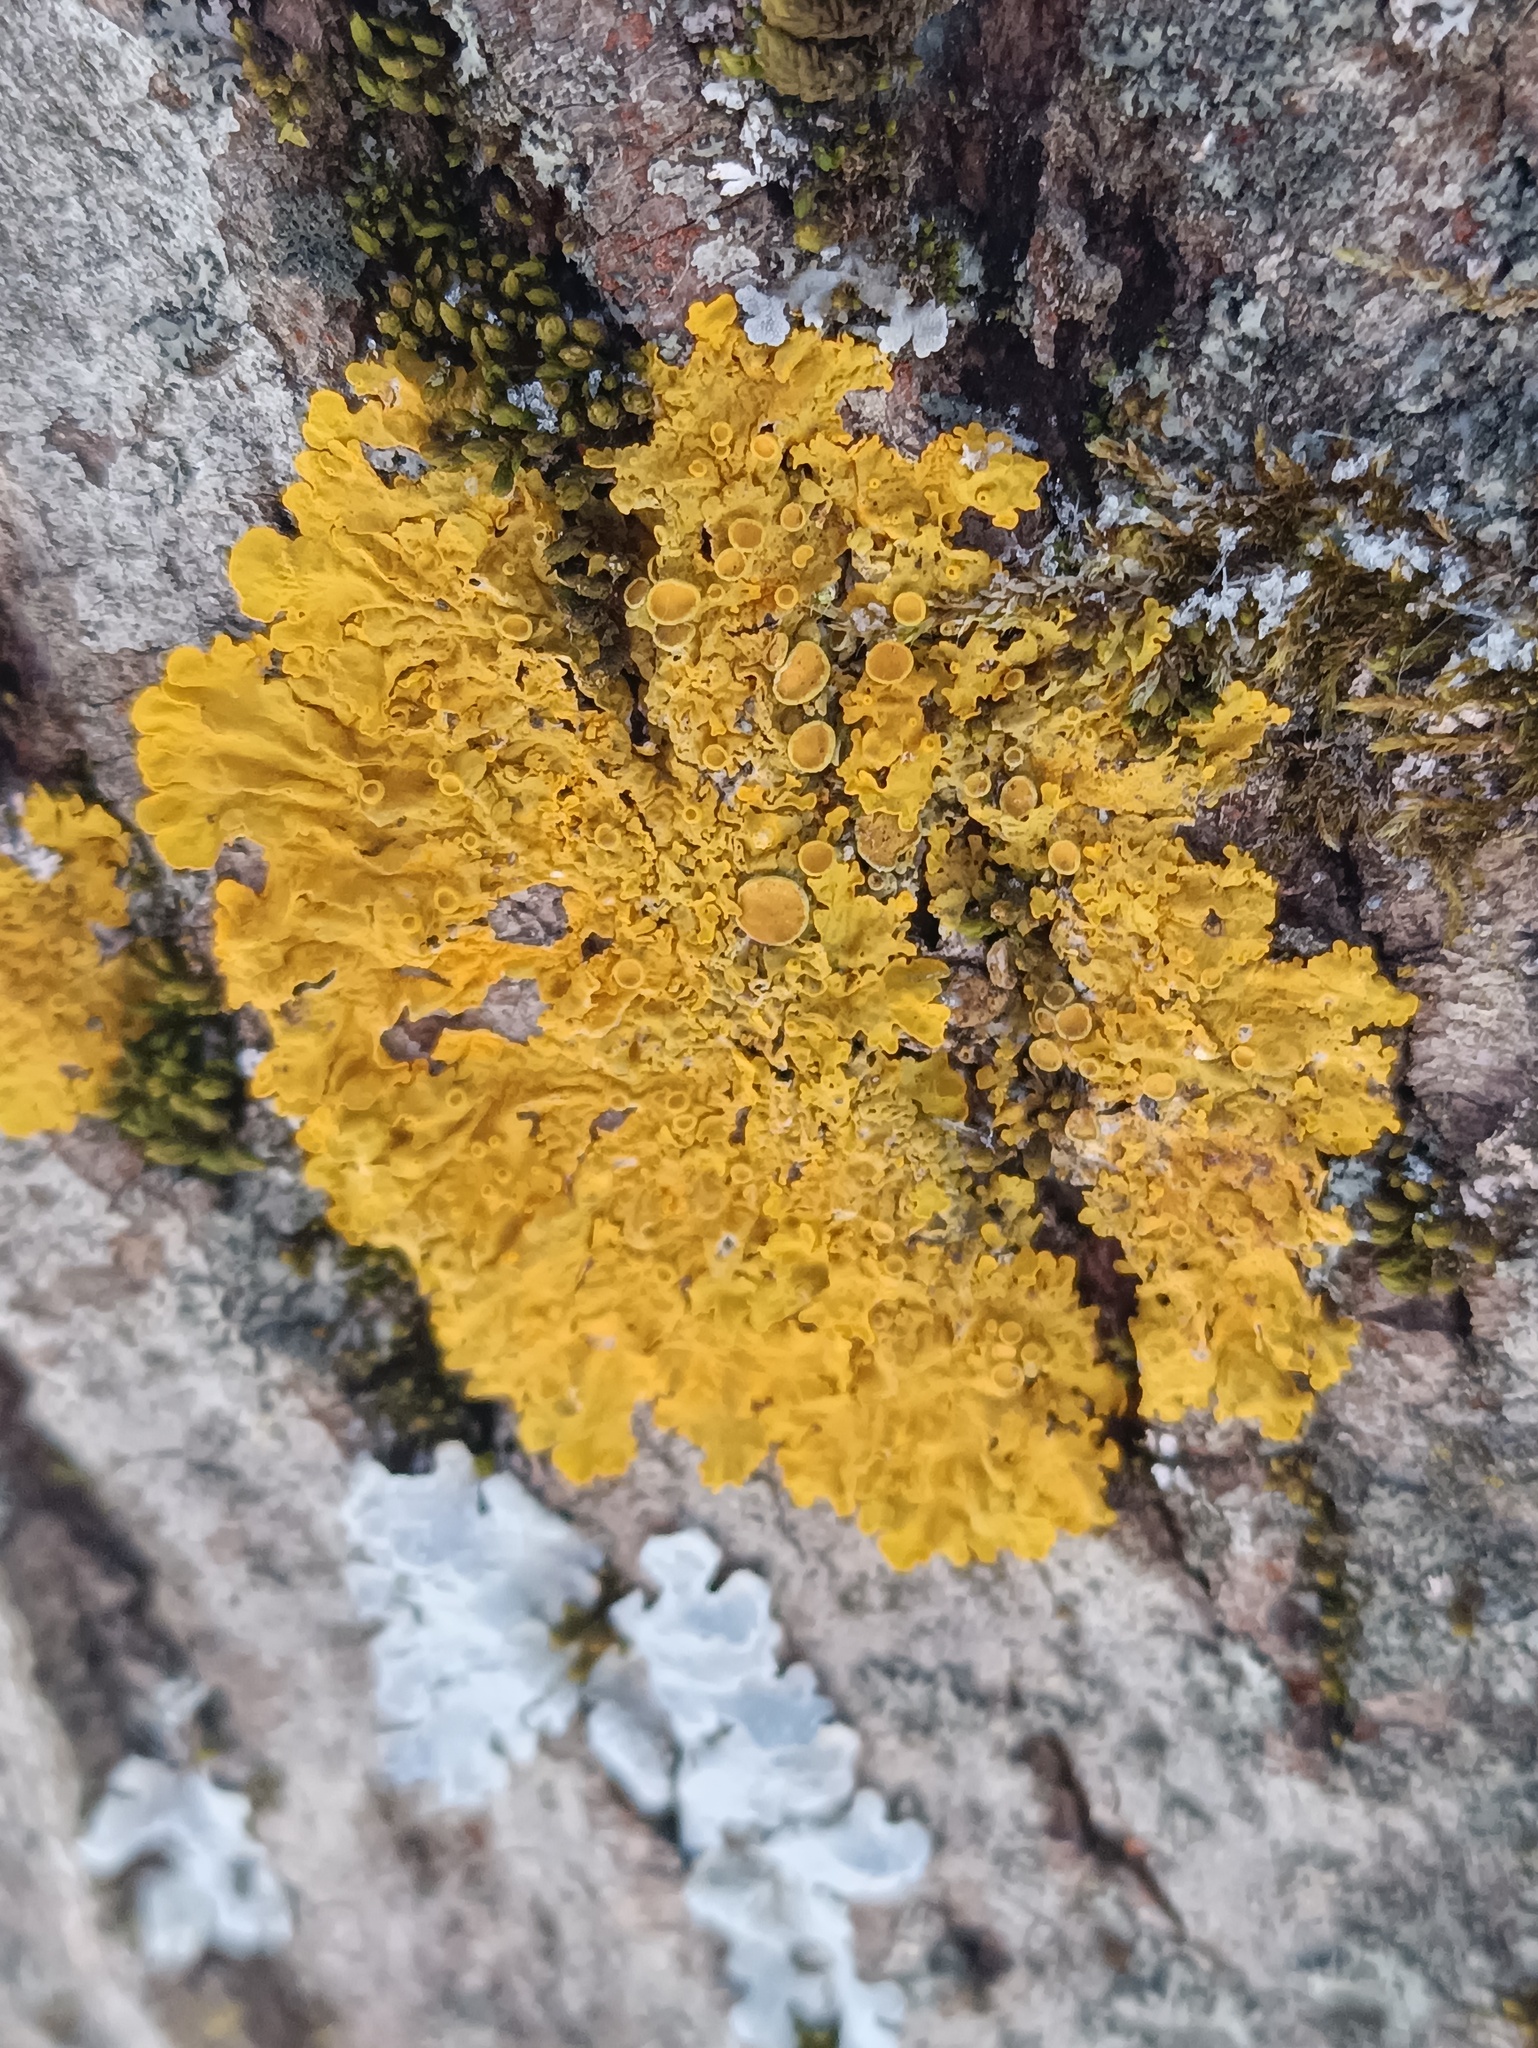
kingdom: Fungi
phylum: Ascomycota
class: Lecanoromycetes
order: Teloschistales
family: Teloschistaceae
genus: Xanthoria
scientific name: Xanthoria parietina
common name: Common orange lichen
